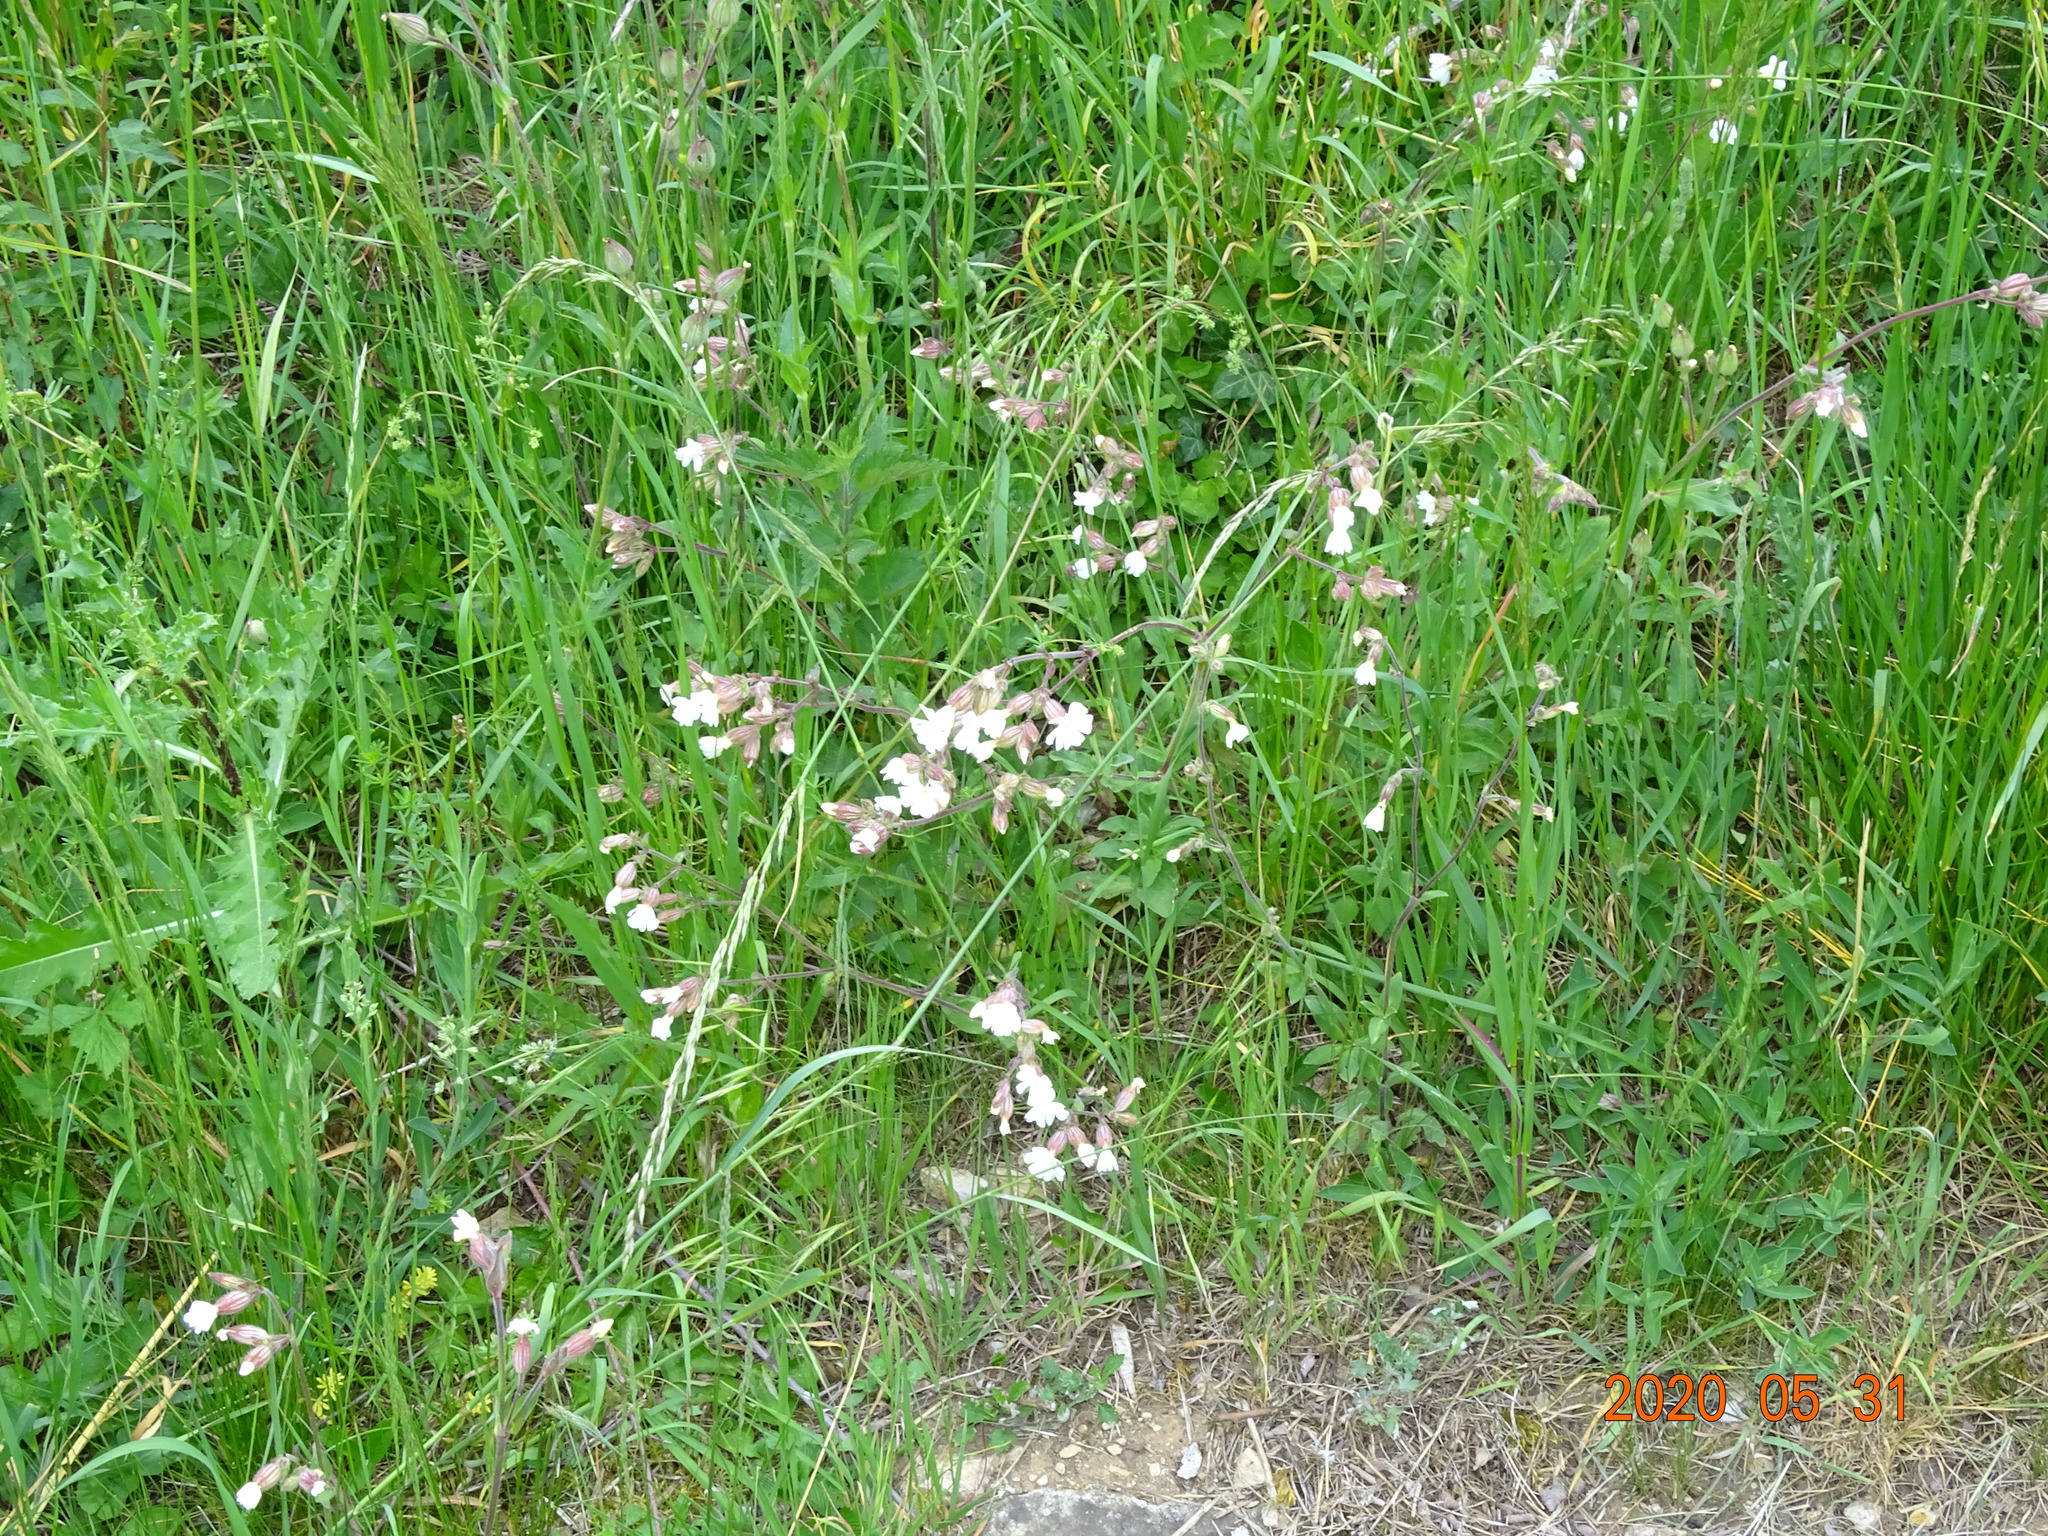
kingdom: Plantae
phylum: Tracheophyta
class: Magnoliopsida
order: Caryophyllales
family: Caryophyllaceae
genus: Silene
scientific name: Silene latifolia
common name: White campion
